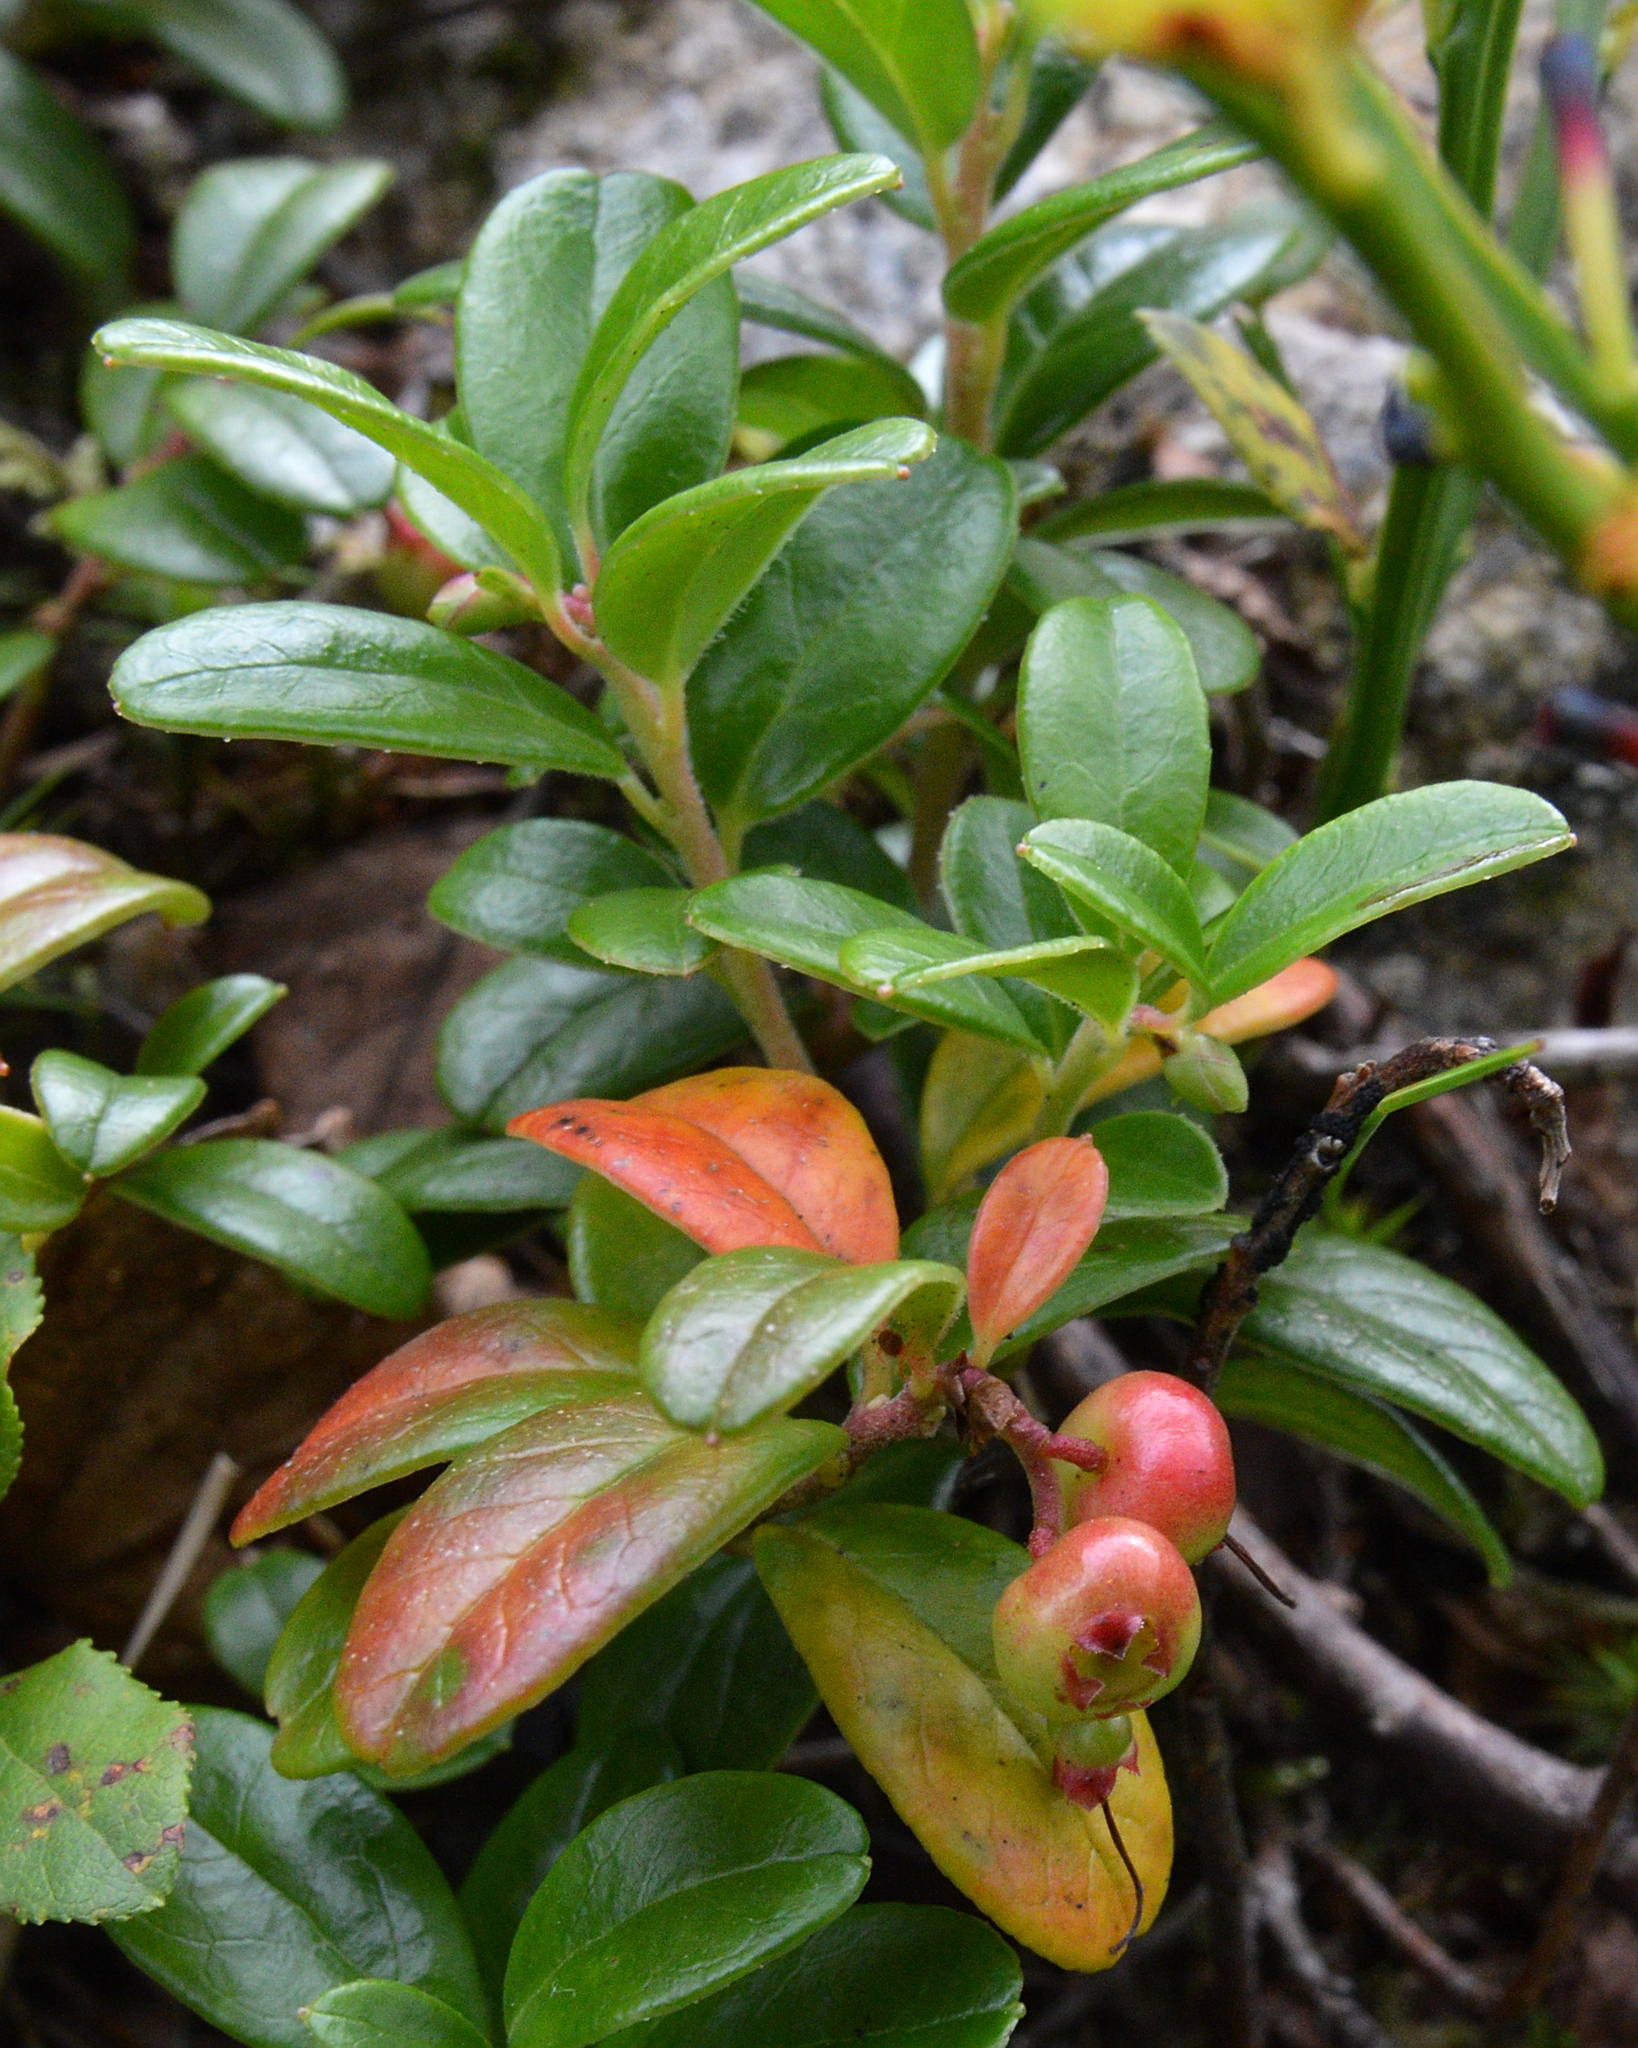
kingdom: Plantae
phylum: Tracheophyta
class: Magnoliopsida
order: Ericales
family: Ericaceae
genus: Vaccinium
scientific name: Vaccinium vitis-idaea
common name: Cowberry
